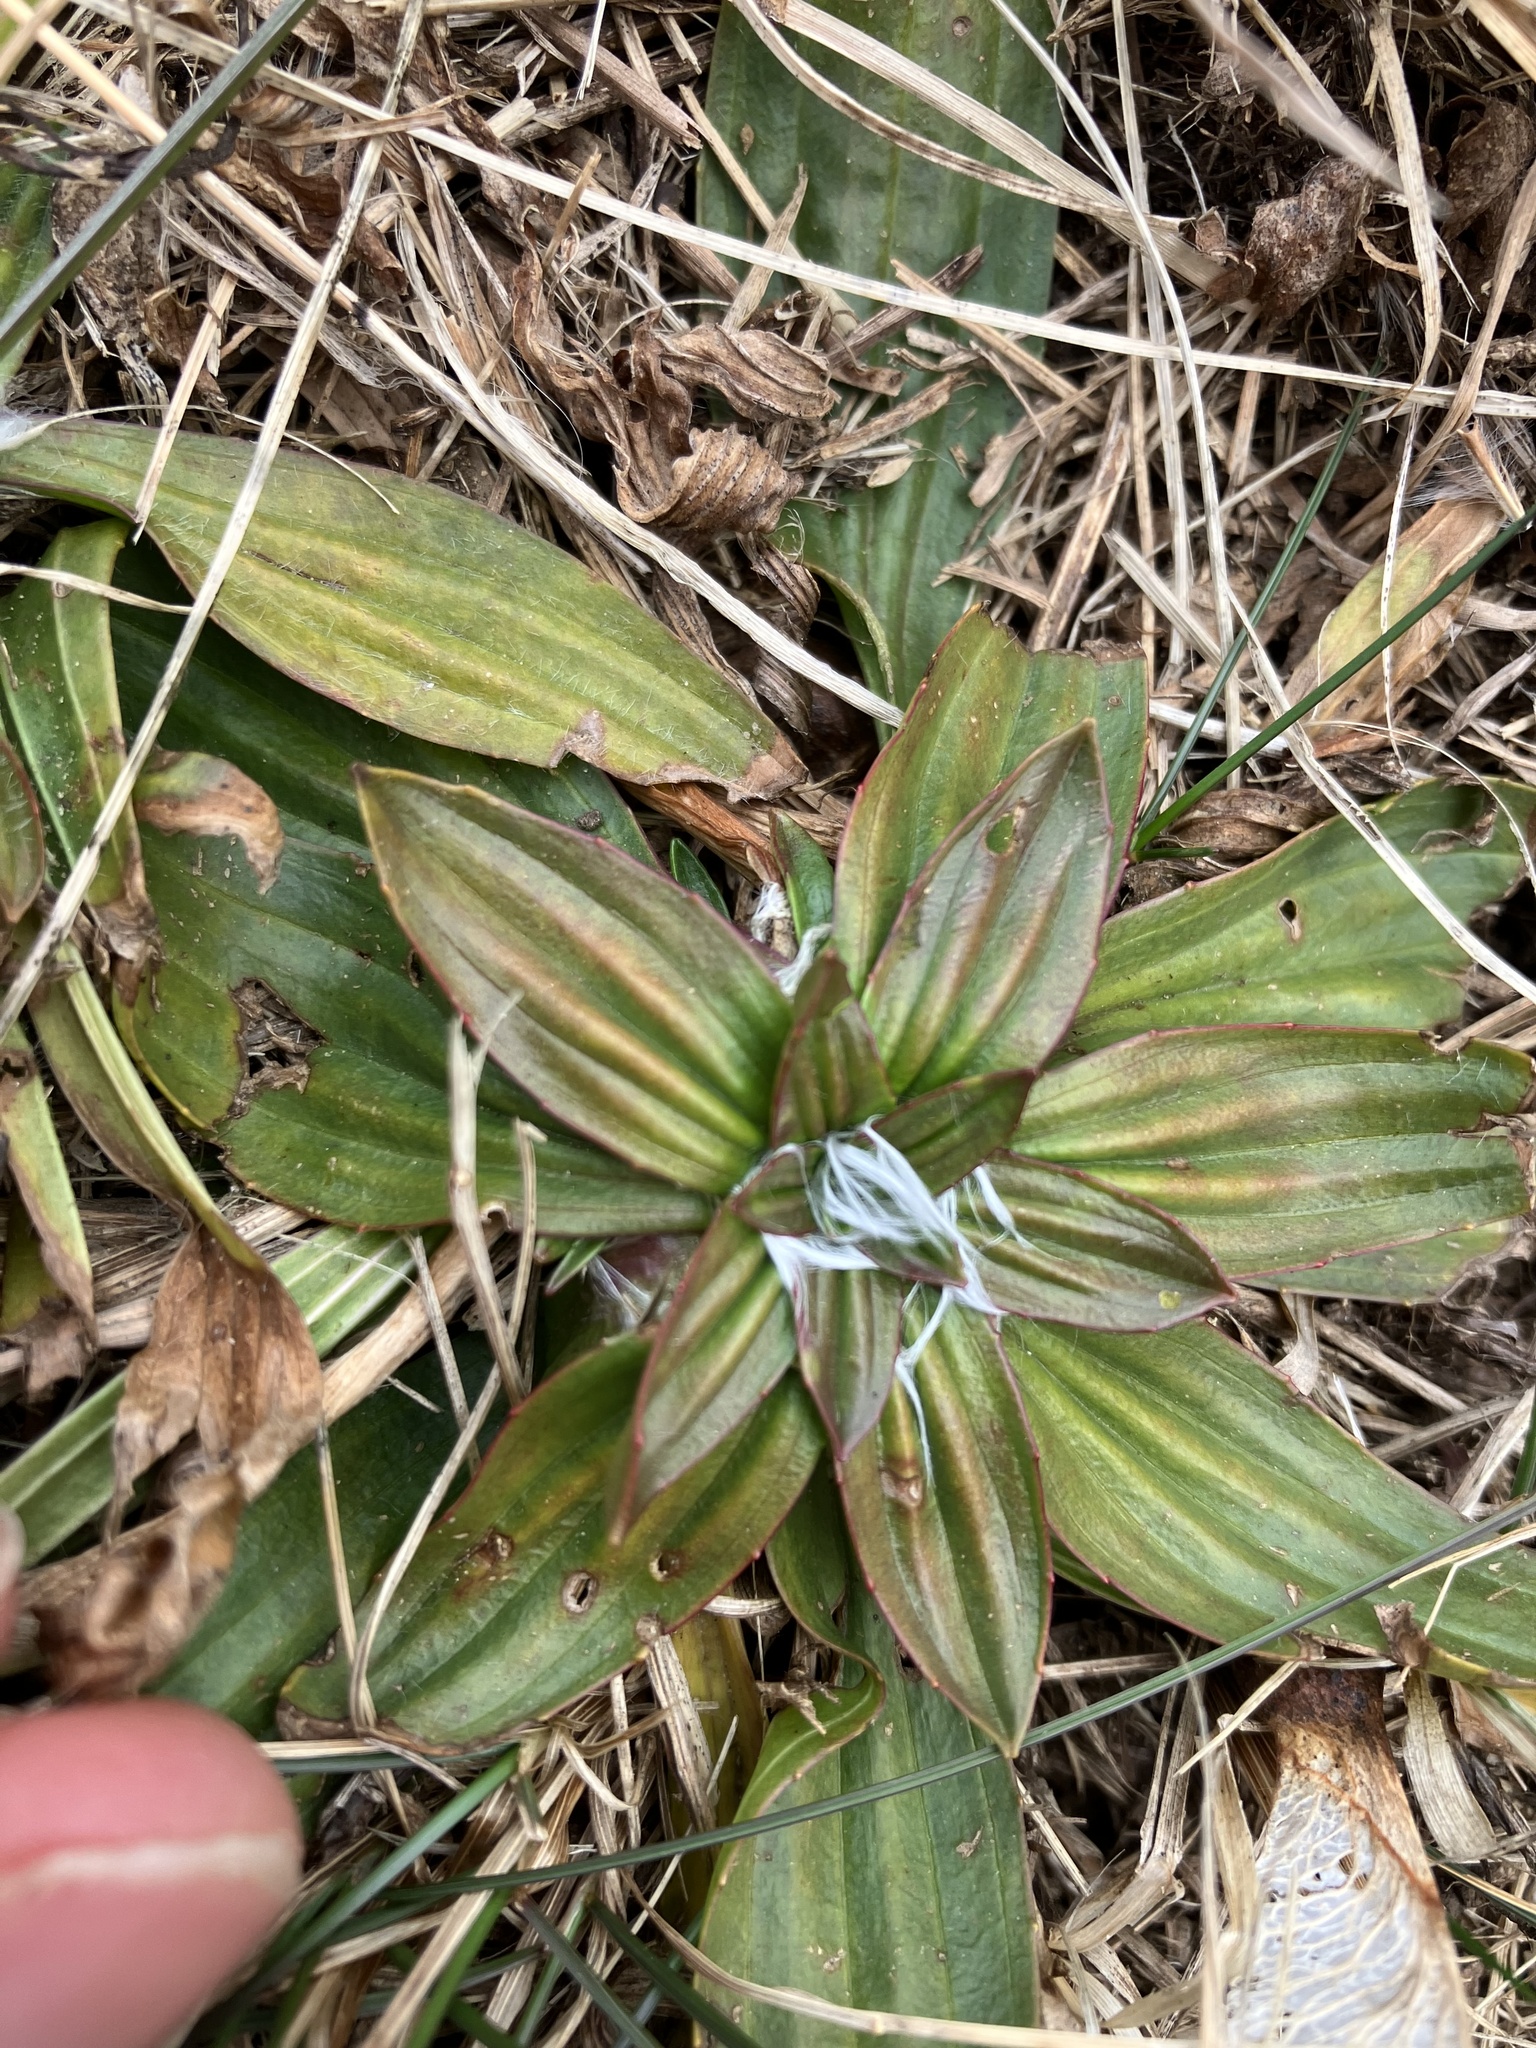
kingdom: Plantae
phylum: Tracheophyta
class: Magnoliopsida
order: Lamiales
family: Plantaginaceae
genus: Plantago
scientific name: Plantago lanceolata
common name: Ribwort plantain
